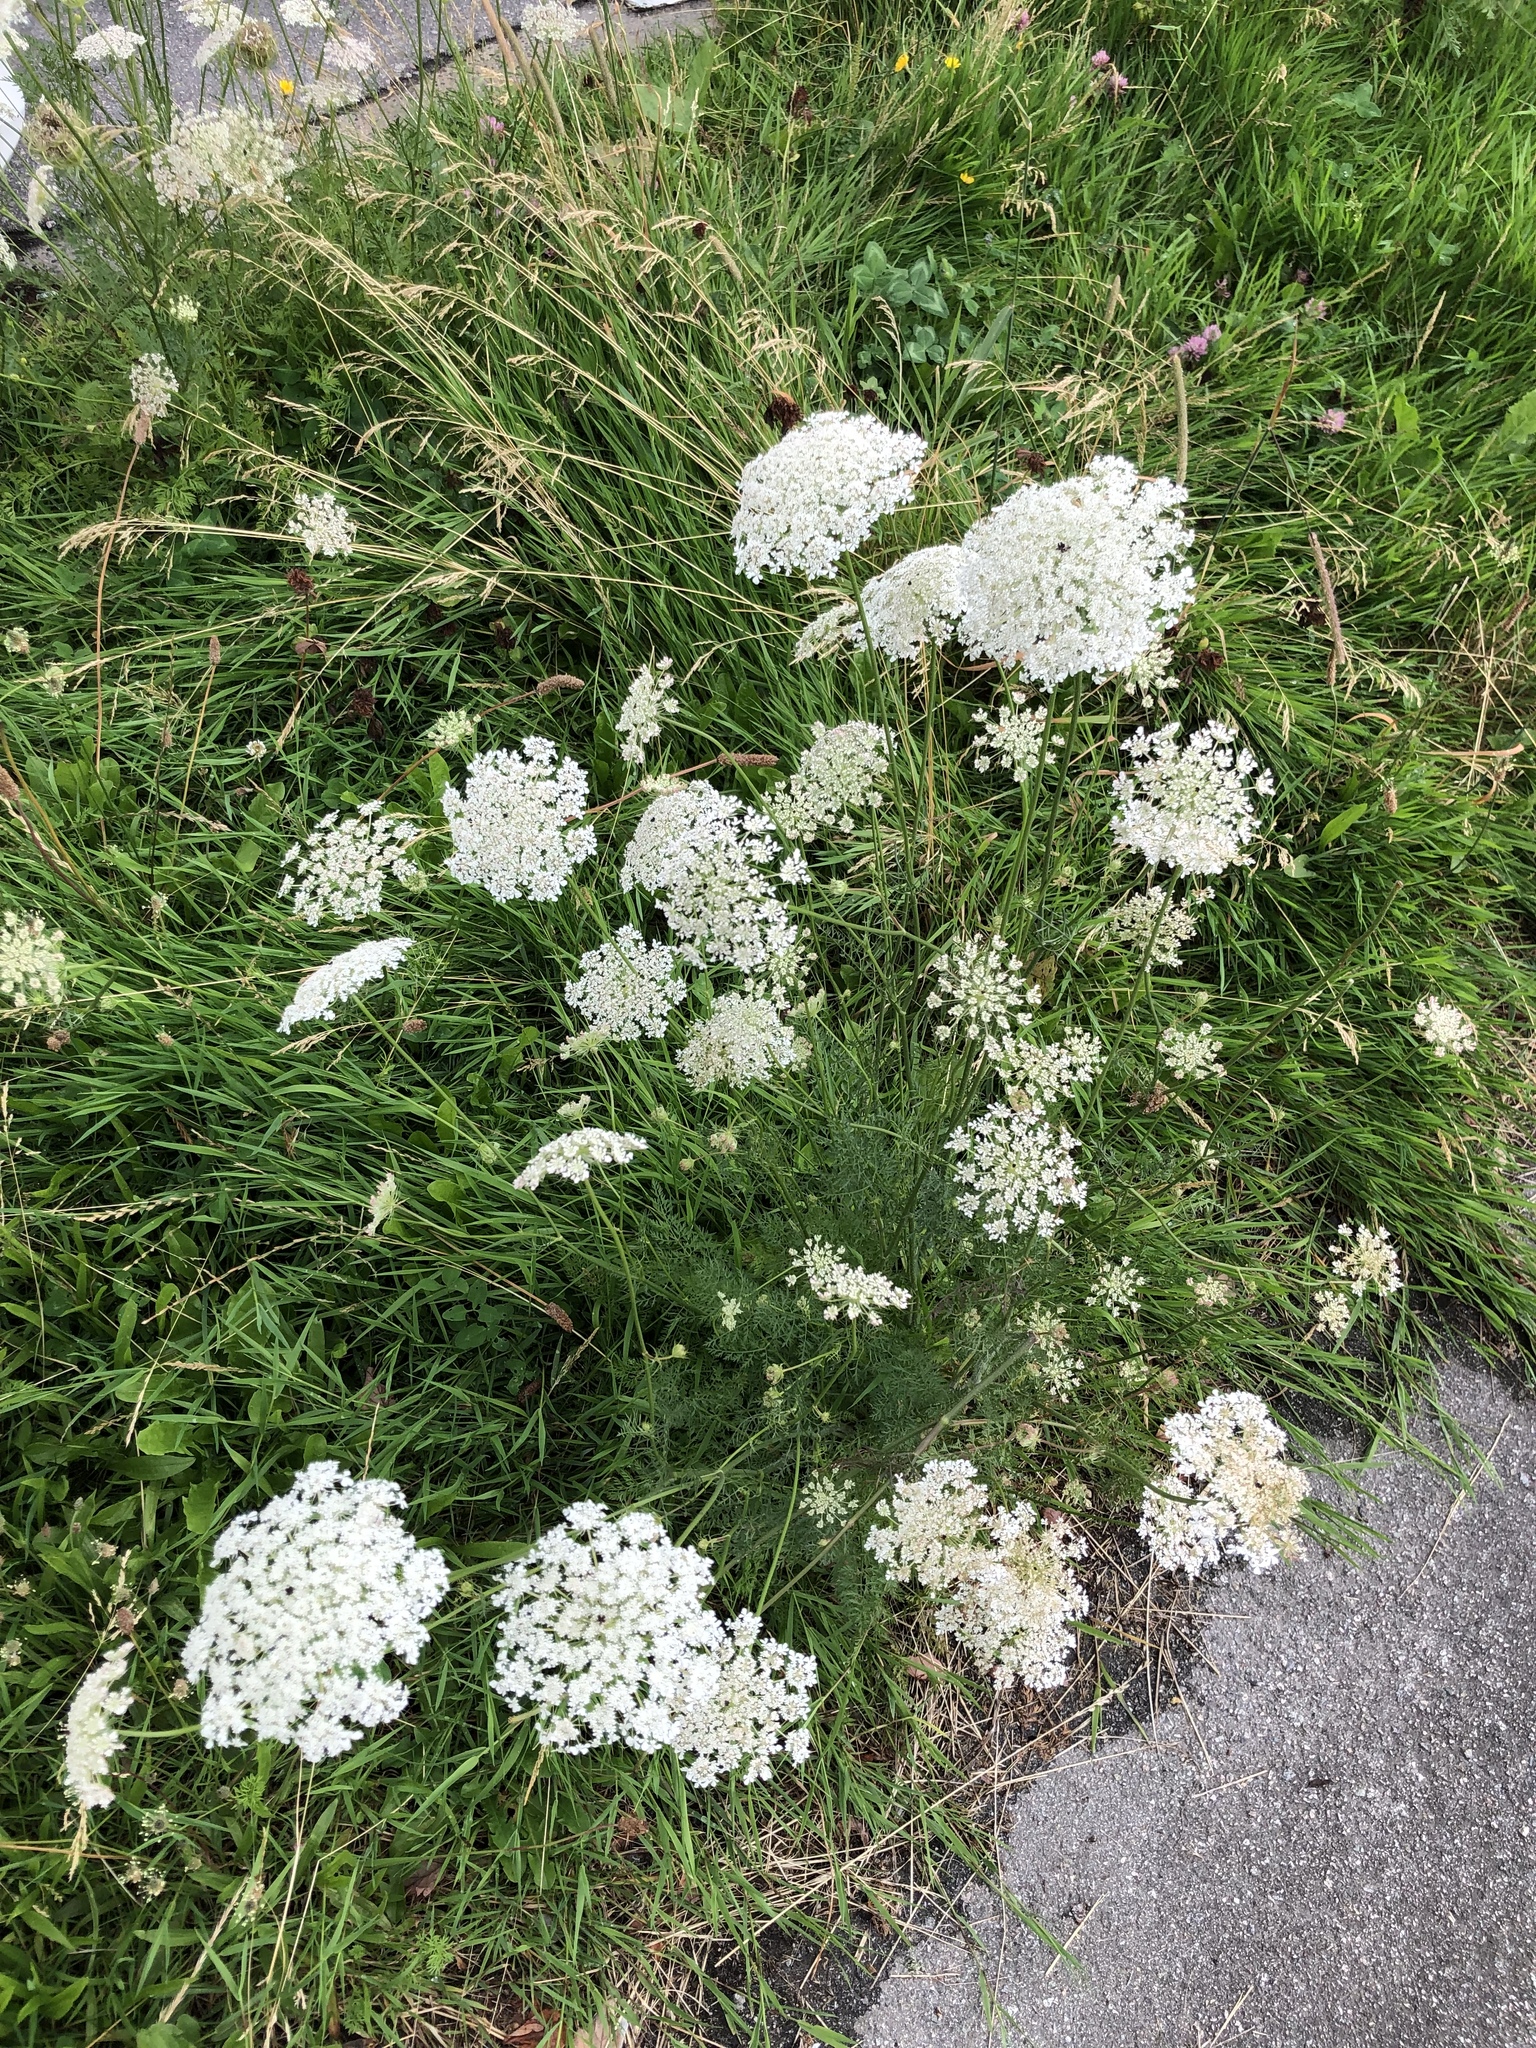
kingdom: Plantae
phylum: Tracheophyta
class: Magnoliopsida
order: Apiales
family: Apiaceae
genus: Daucus
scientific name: Daucus carota
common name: Wild carrot
